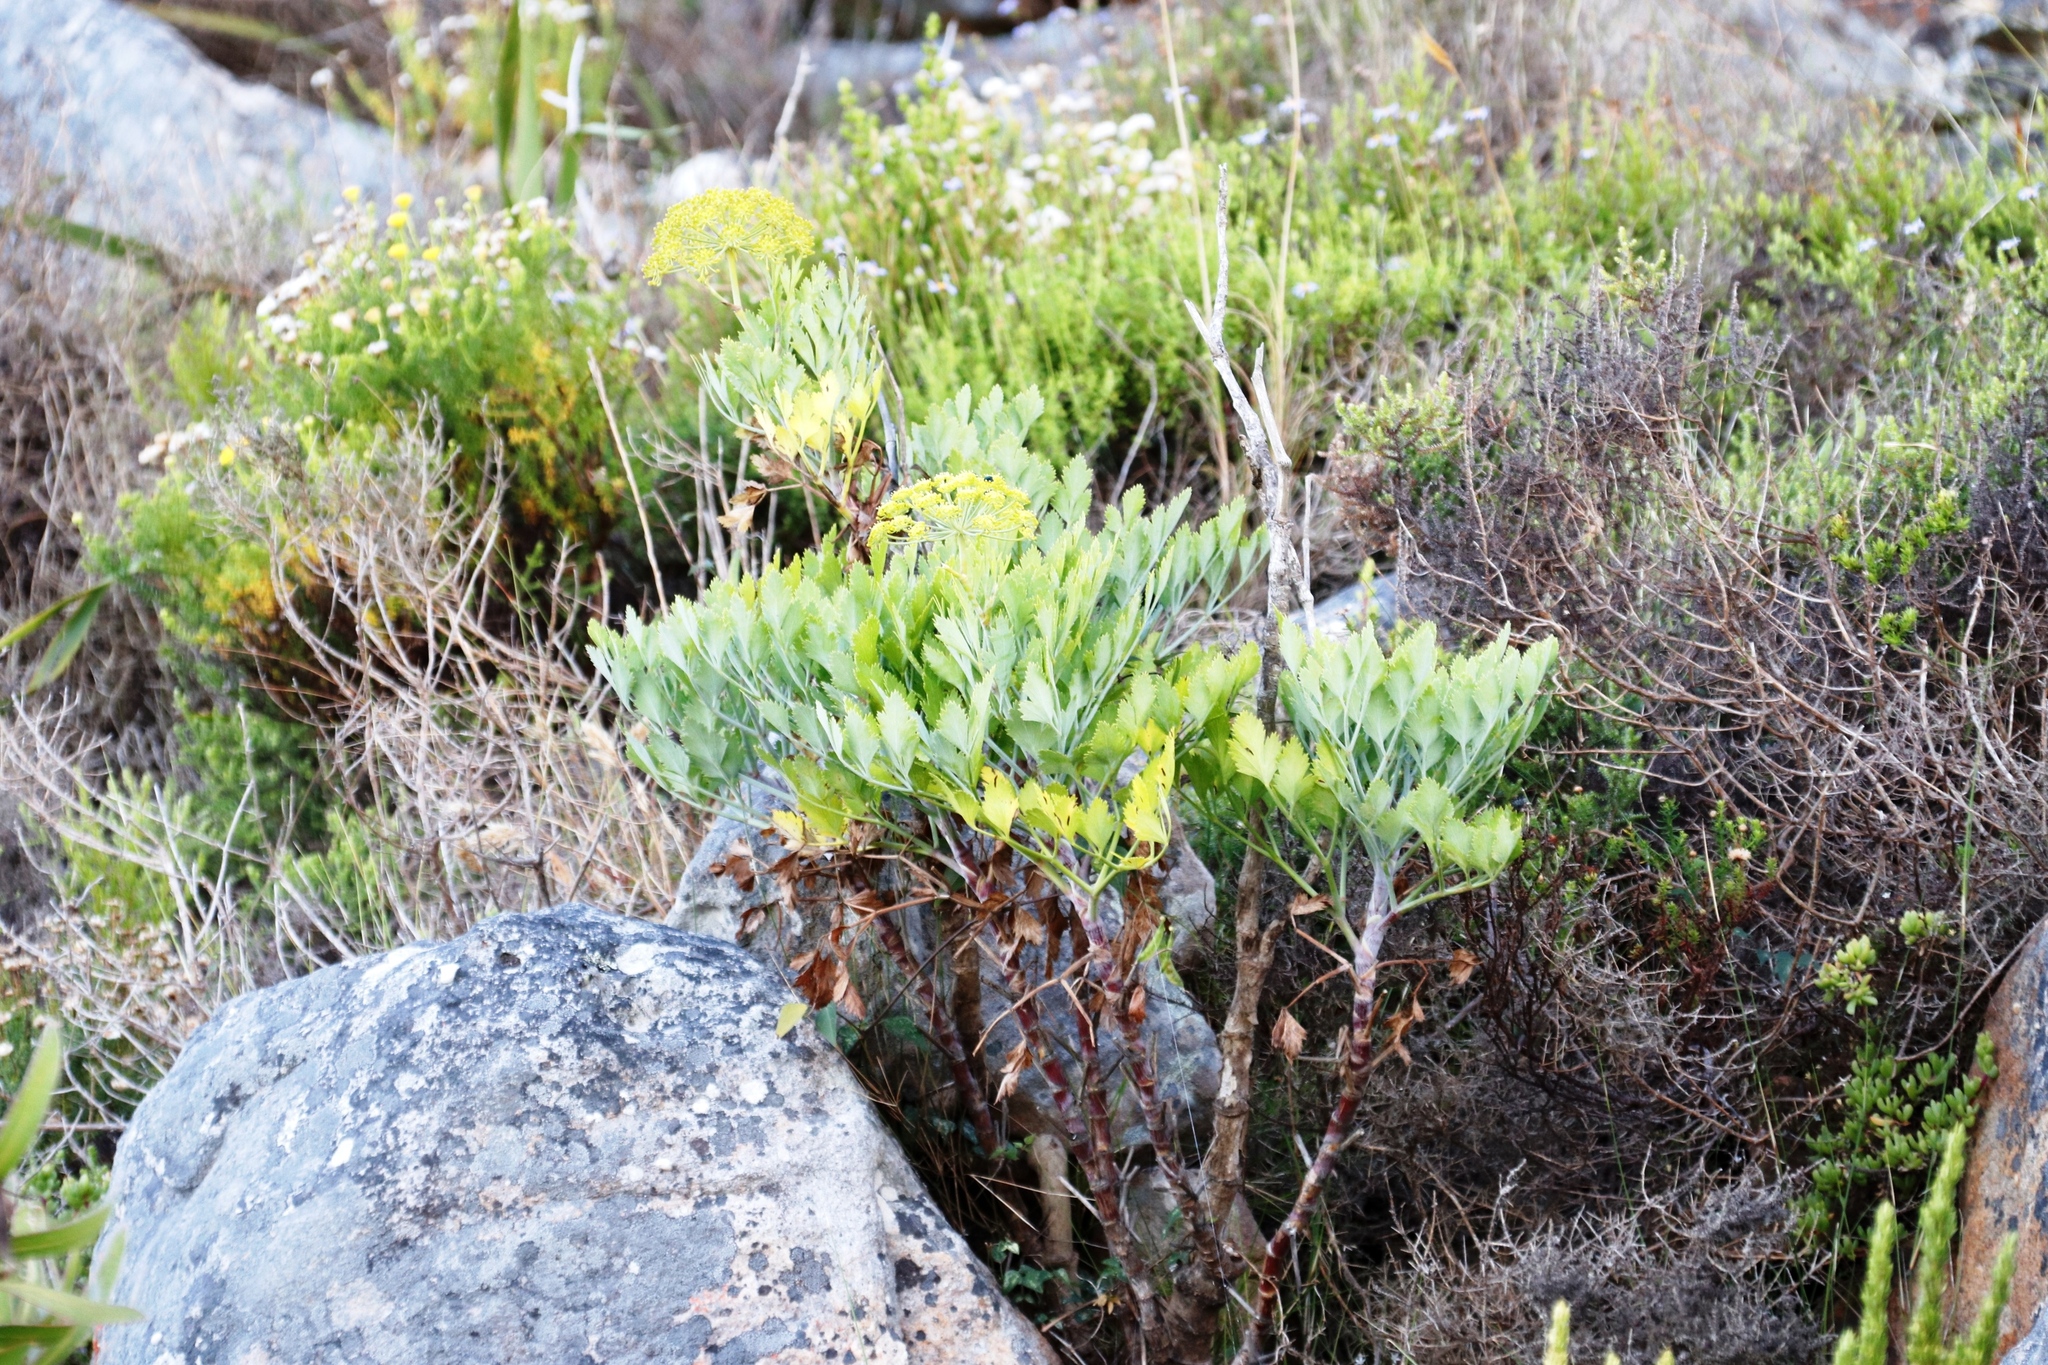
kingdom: Plantae
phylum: Tracheophyta
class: Magnoliopsida
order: Apiales
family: Apiaceae
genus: Notobubon
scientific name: Notobubon galbanum
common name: Blisterbush
